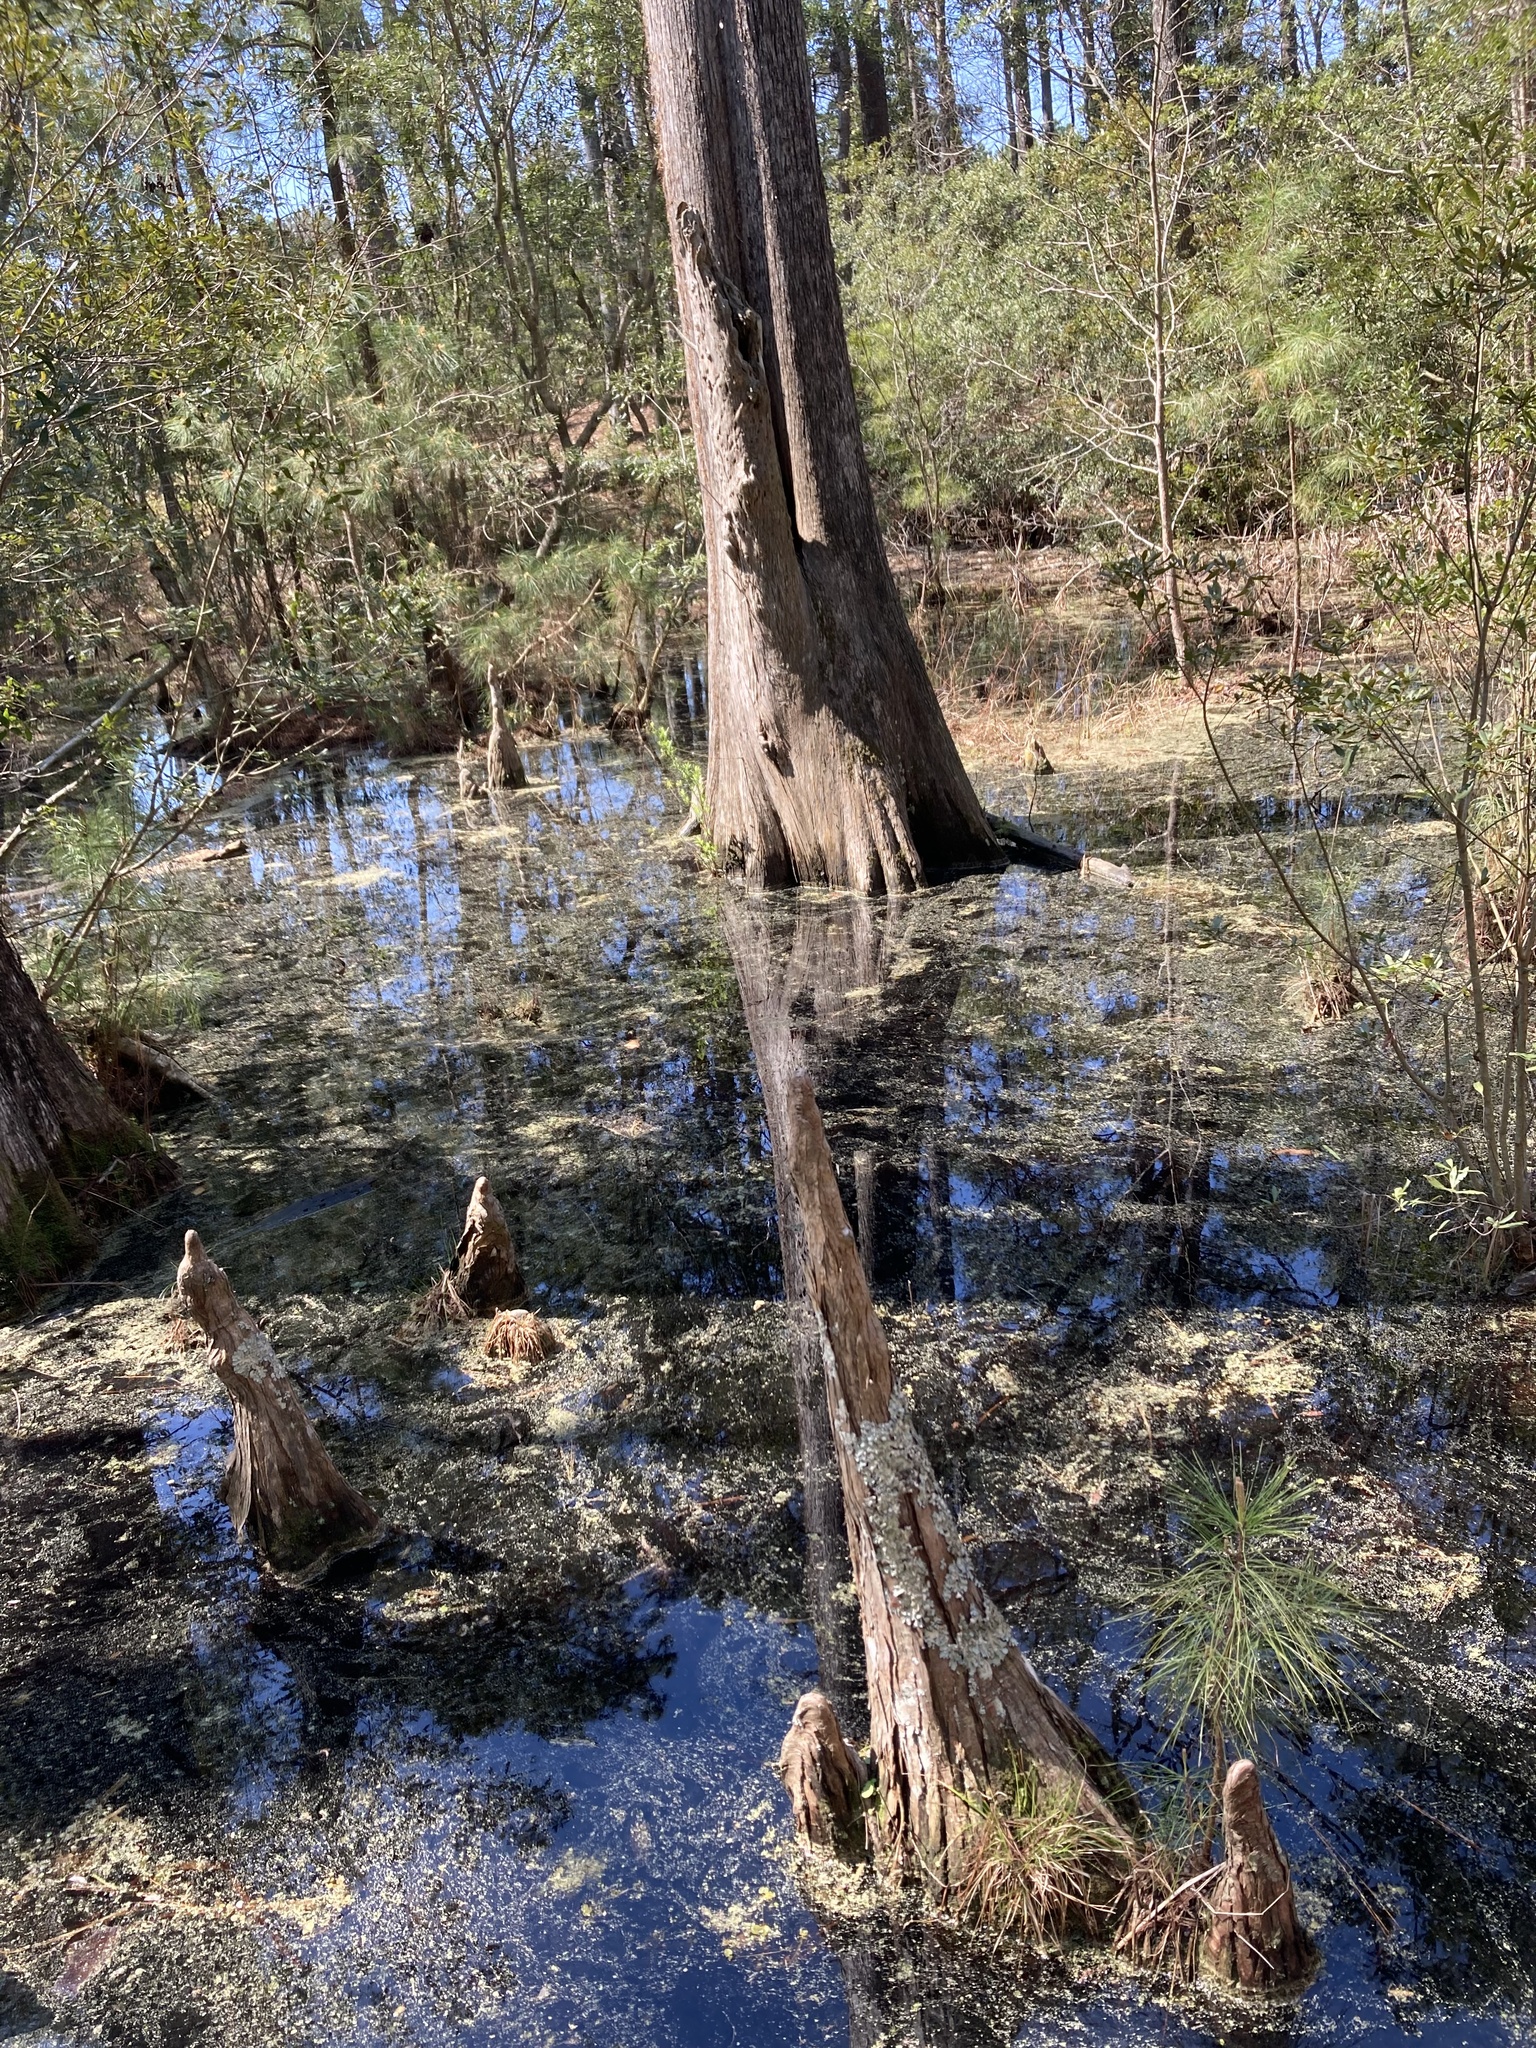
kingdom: Plantae
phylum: Tracheophyta
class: Pinopsida
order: Pinales
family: Cupressaceae
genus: Taxodium
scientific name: Taxodium distichum
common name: Bald cypress
